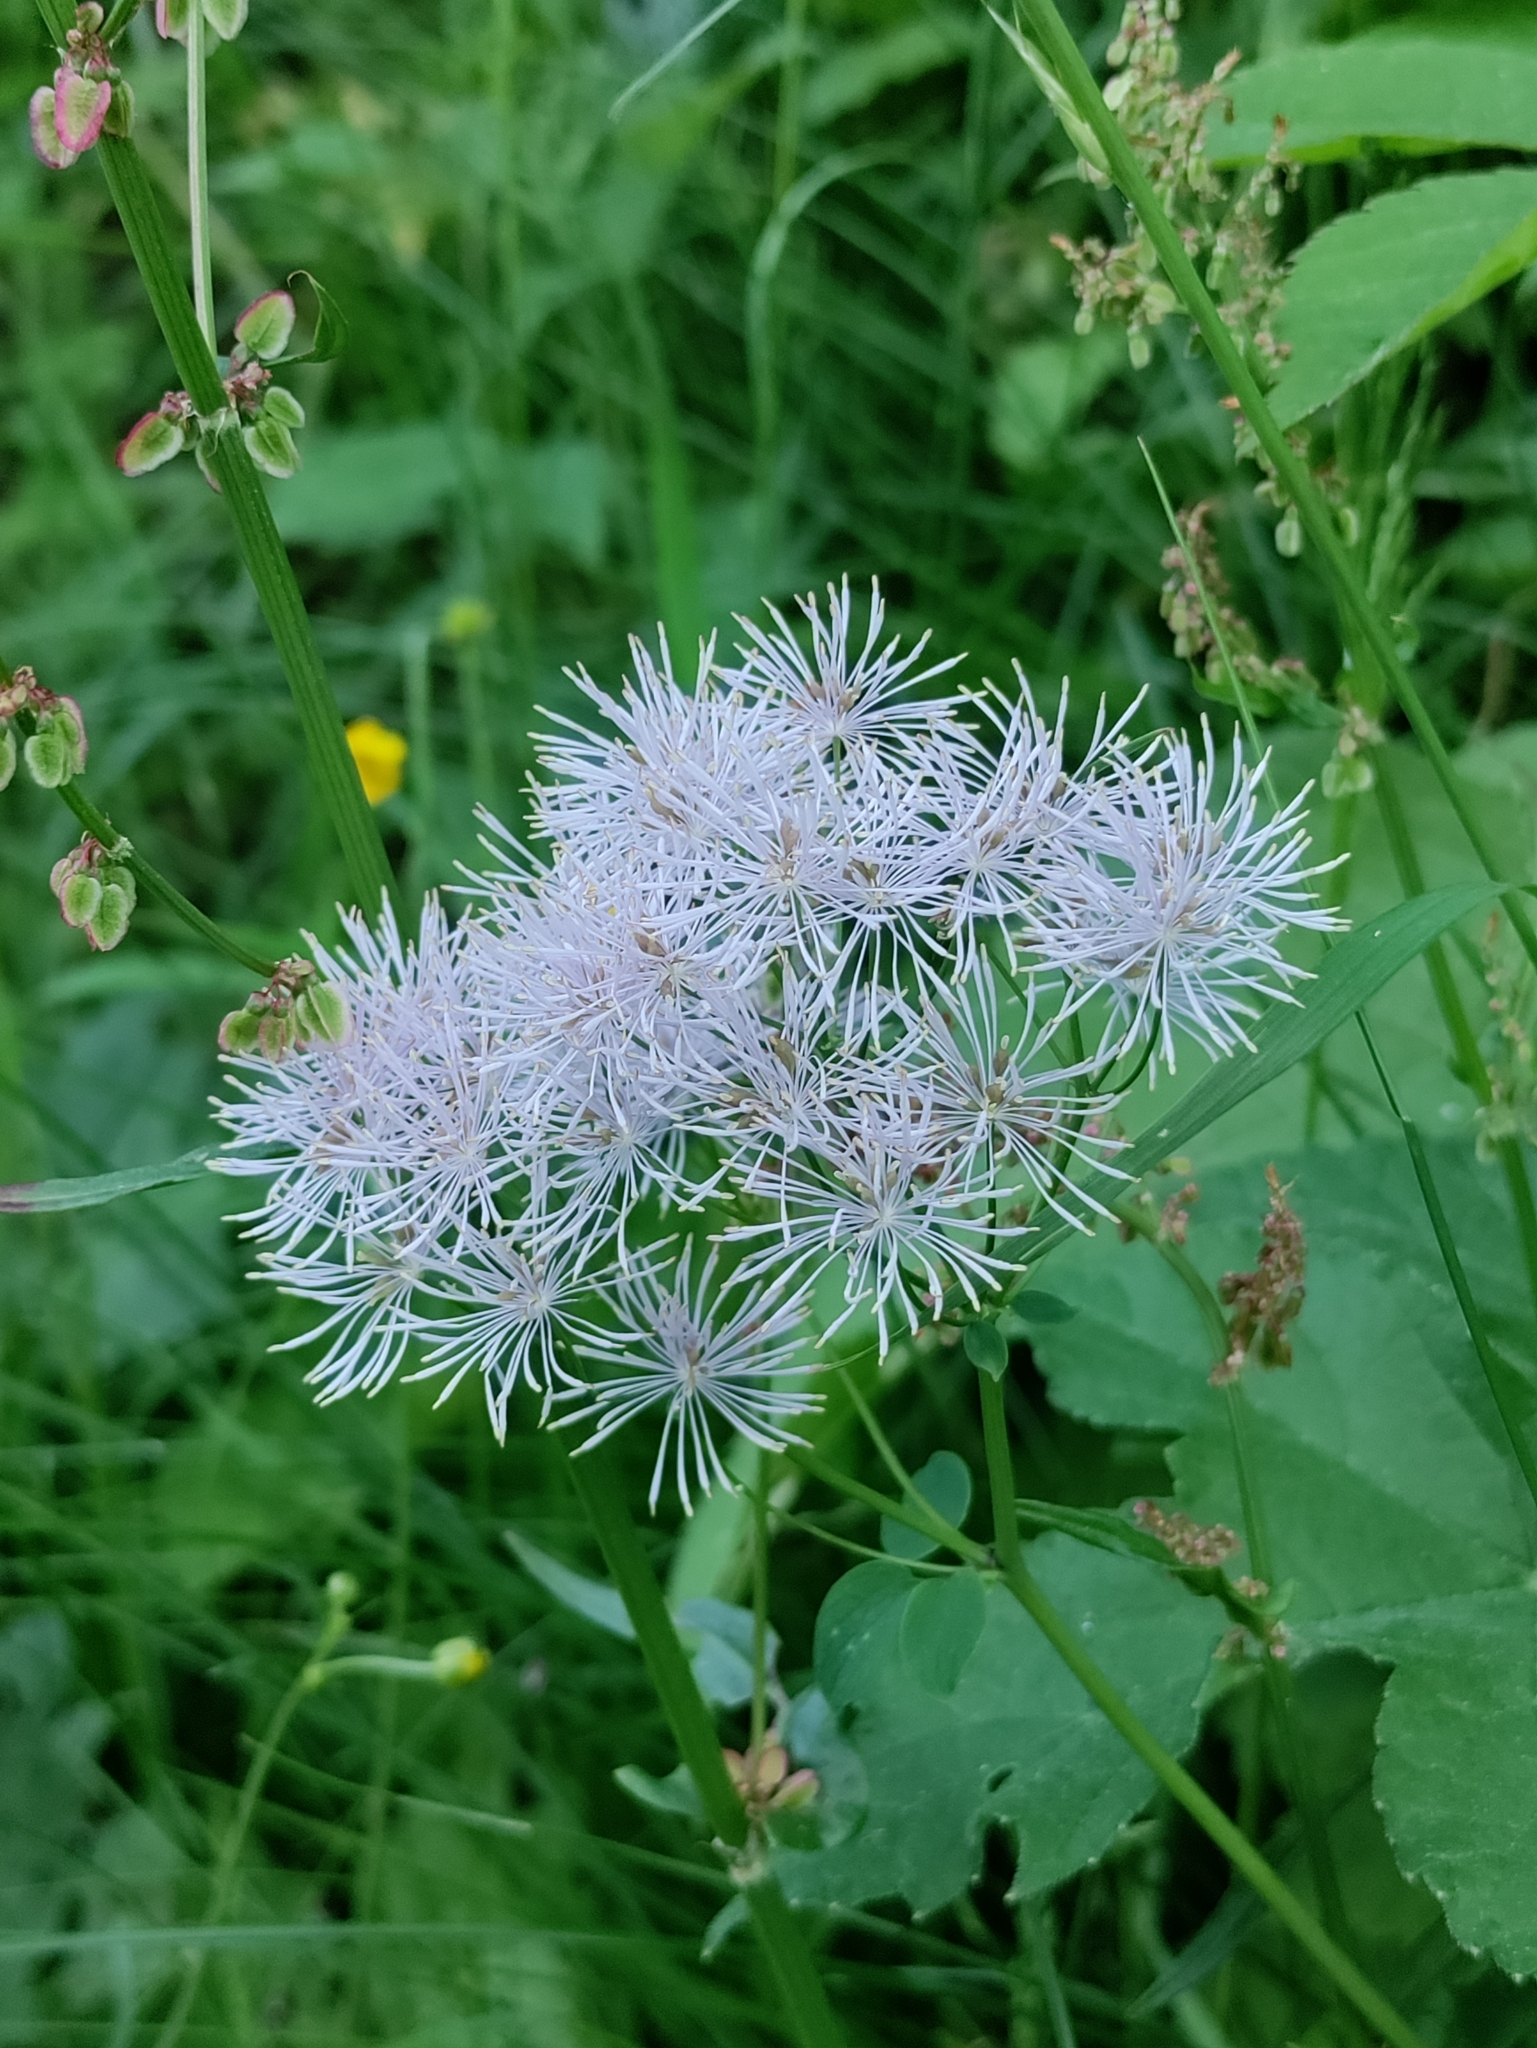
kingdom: Plantae
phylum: Tracheophyta
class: Magnoliopsida
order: Ranunculales
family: Ranunculaceae
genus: Thalictrum
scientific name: Thalictrum aquilegiifolium
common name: French meadow-rue
